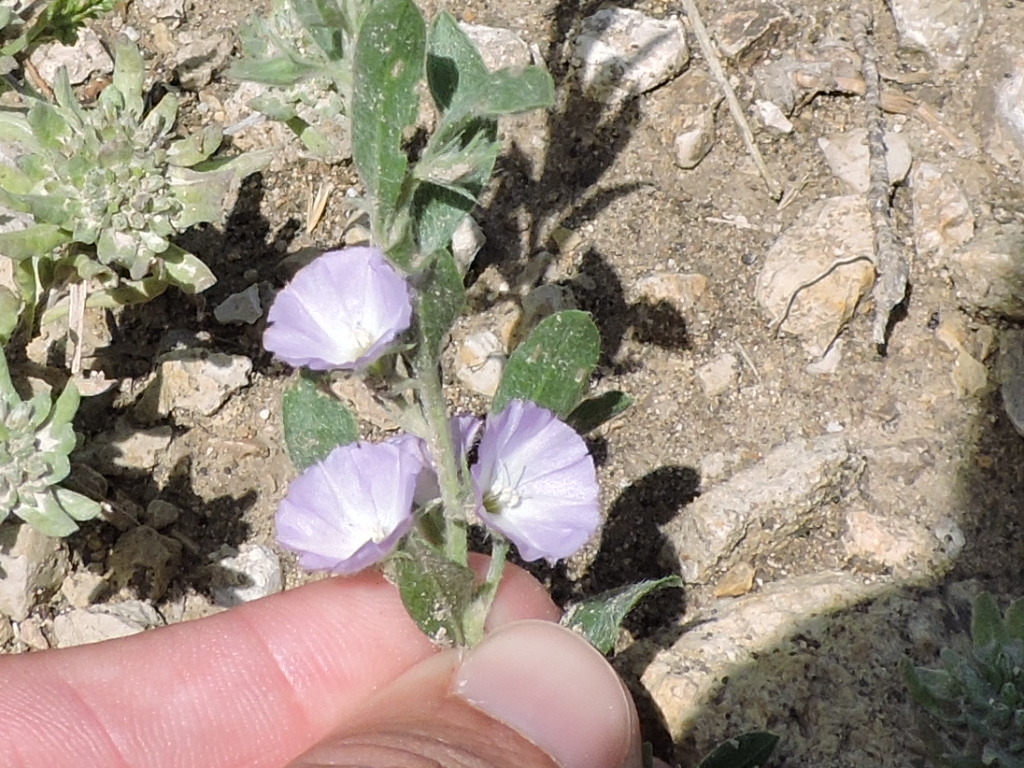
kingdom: Plantae
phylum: Tracheophyta
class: Magnoliopsida
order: Solanales
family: Convolvulaceae
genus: Evolvulus
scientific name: Evolvulus nuttallianus
